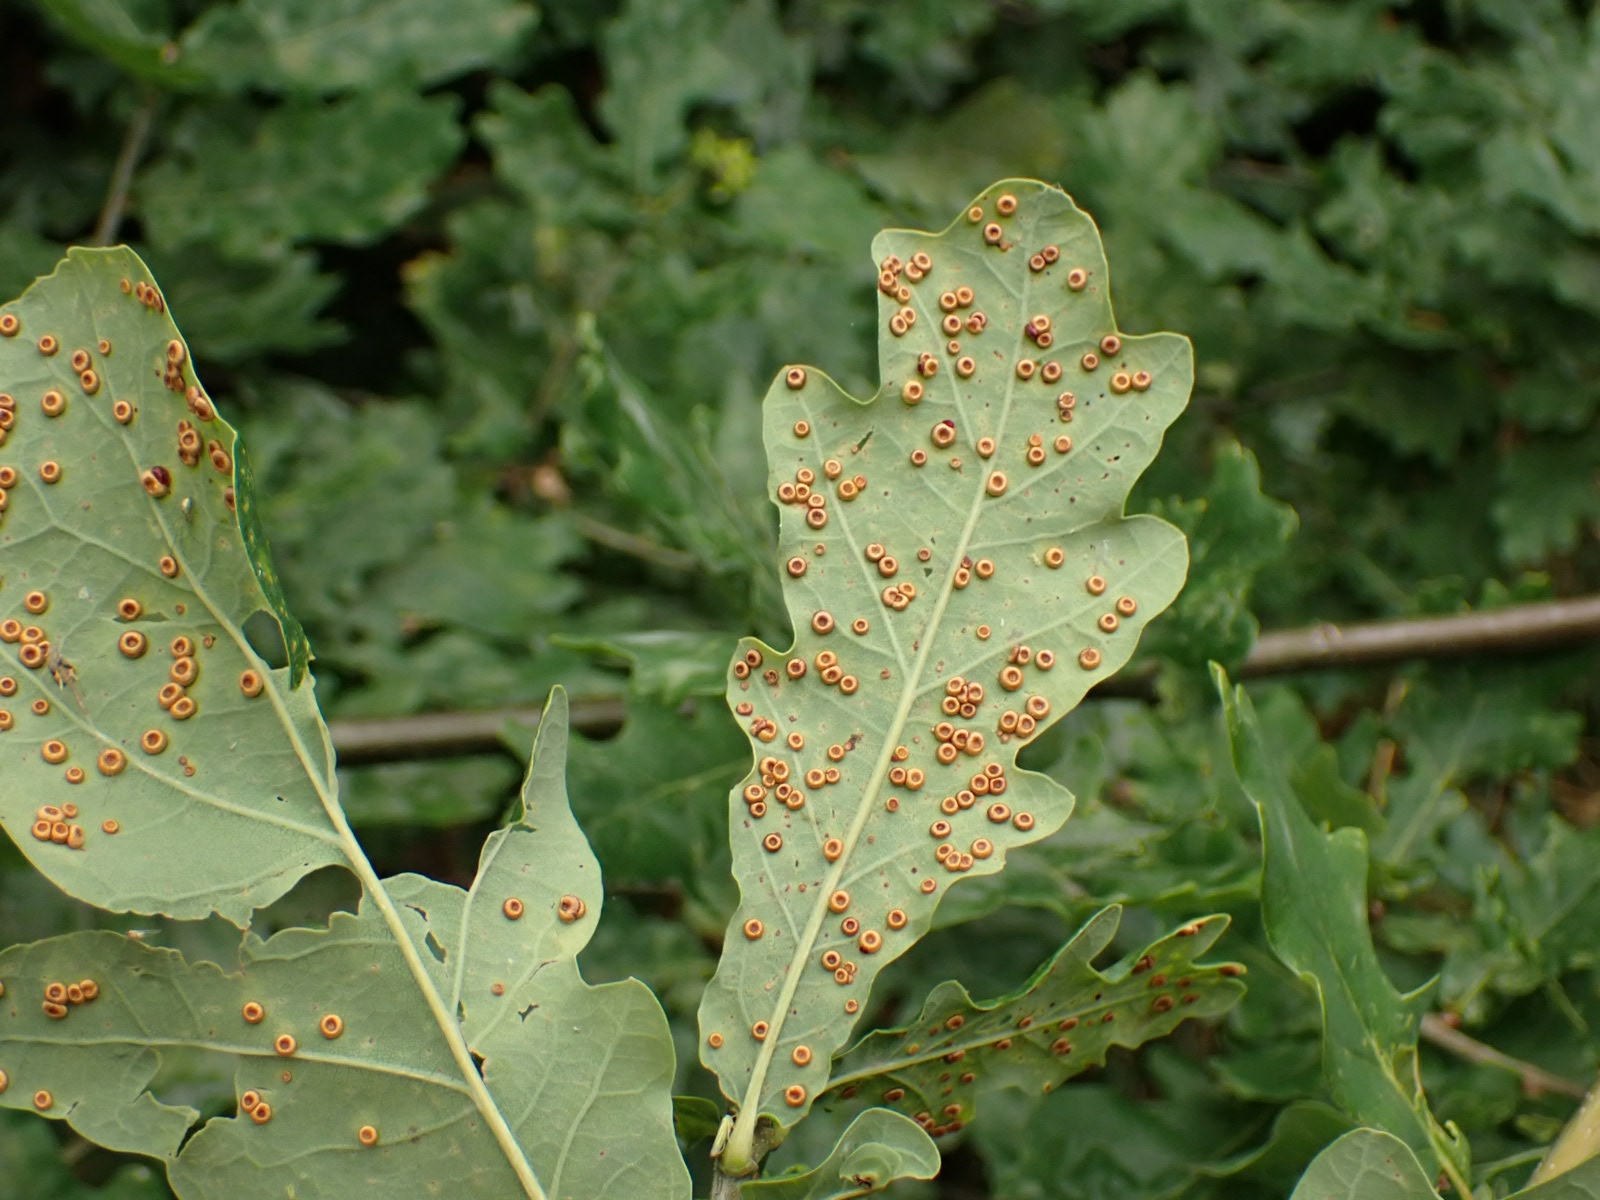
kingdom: Animalia
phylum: Arthropoda
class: Insecta
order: Hymenoptera
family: Cynipidae
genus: Neuroterus
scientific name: Neuroterus numismalis
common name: Silk-button spangle gall
